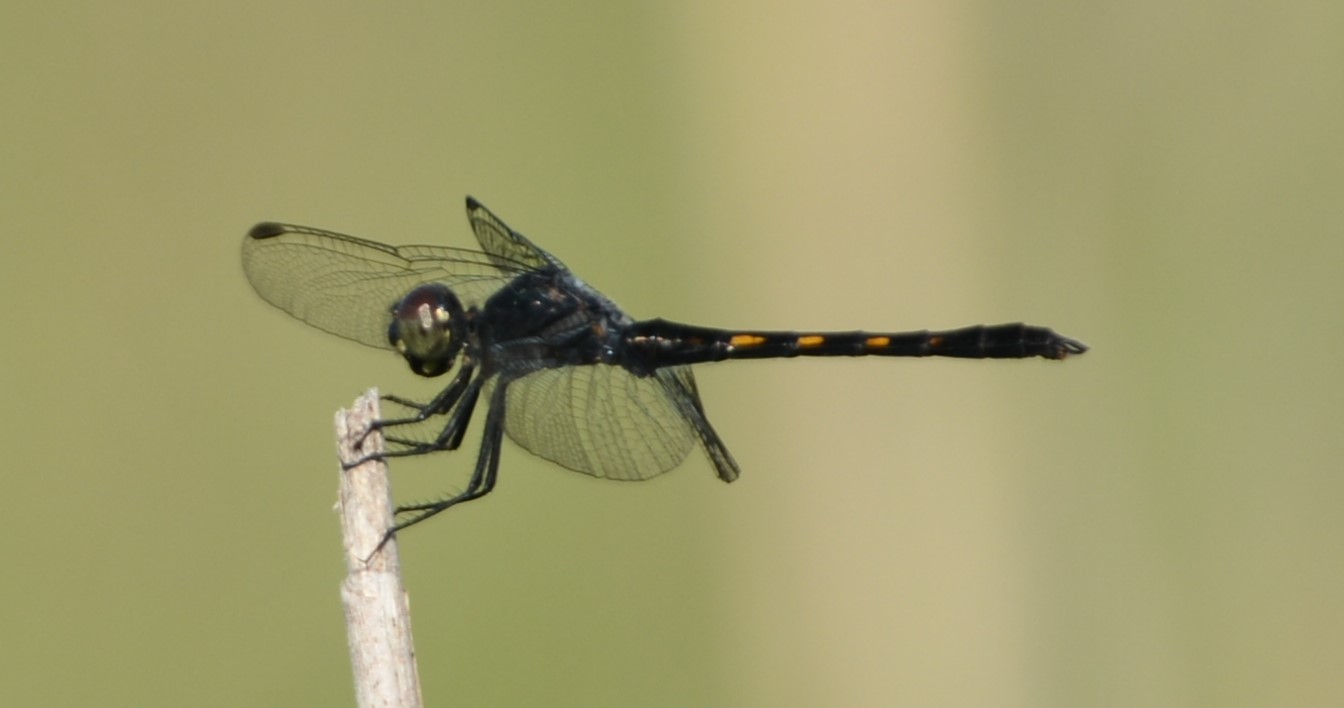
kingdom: Animalia
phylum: Arthropoda
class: Insecta
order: Odonata
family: Libellulidae
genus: Erythrodiplax
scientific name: Erythrodiplax berenice
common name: Seaside dragonlet
